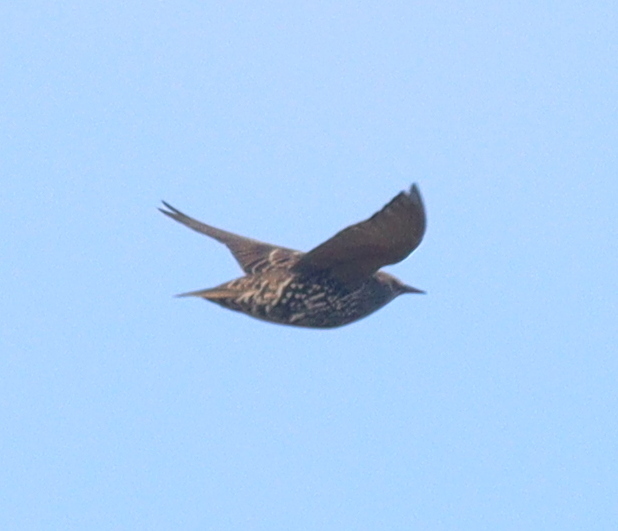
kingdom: Animalia
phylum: Chordata
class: Aves
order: Passeriformes
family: Sturnidae
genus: Sturnus
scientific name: Sturnus vulgaris
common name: Common starling
